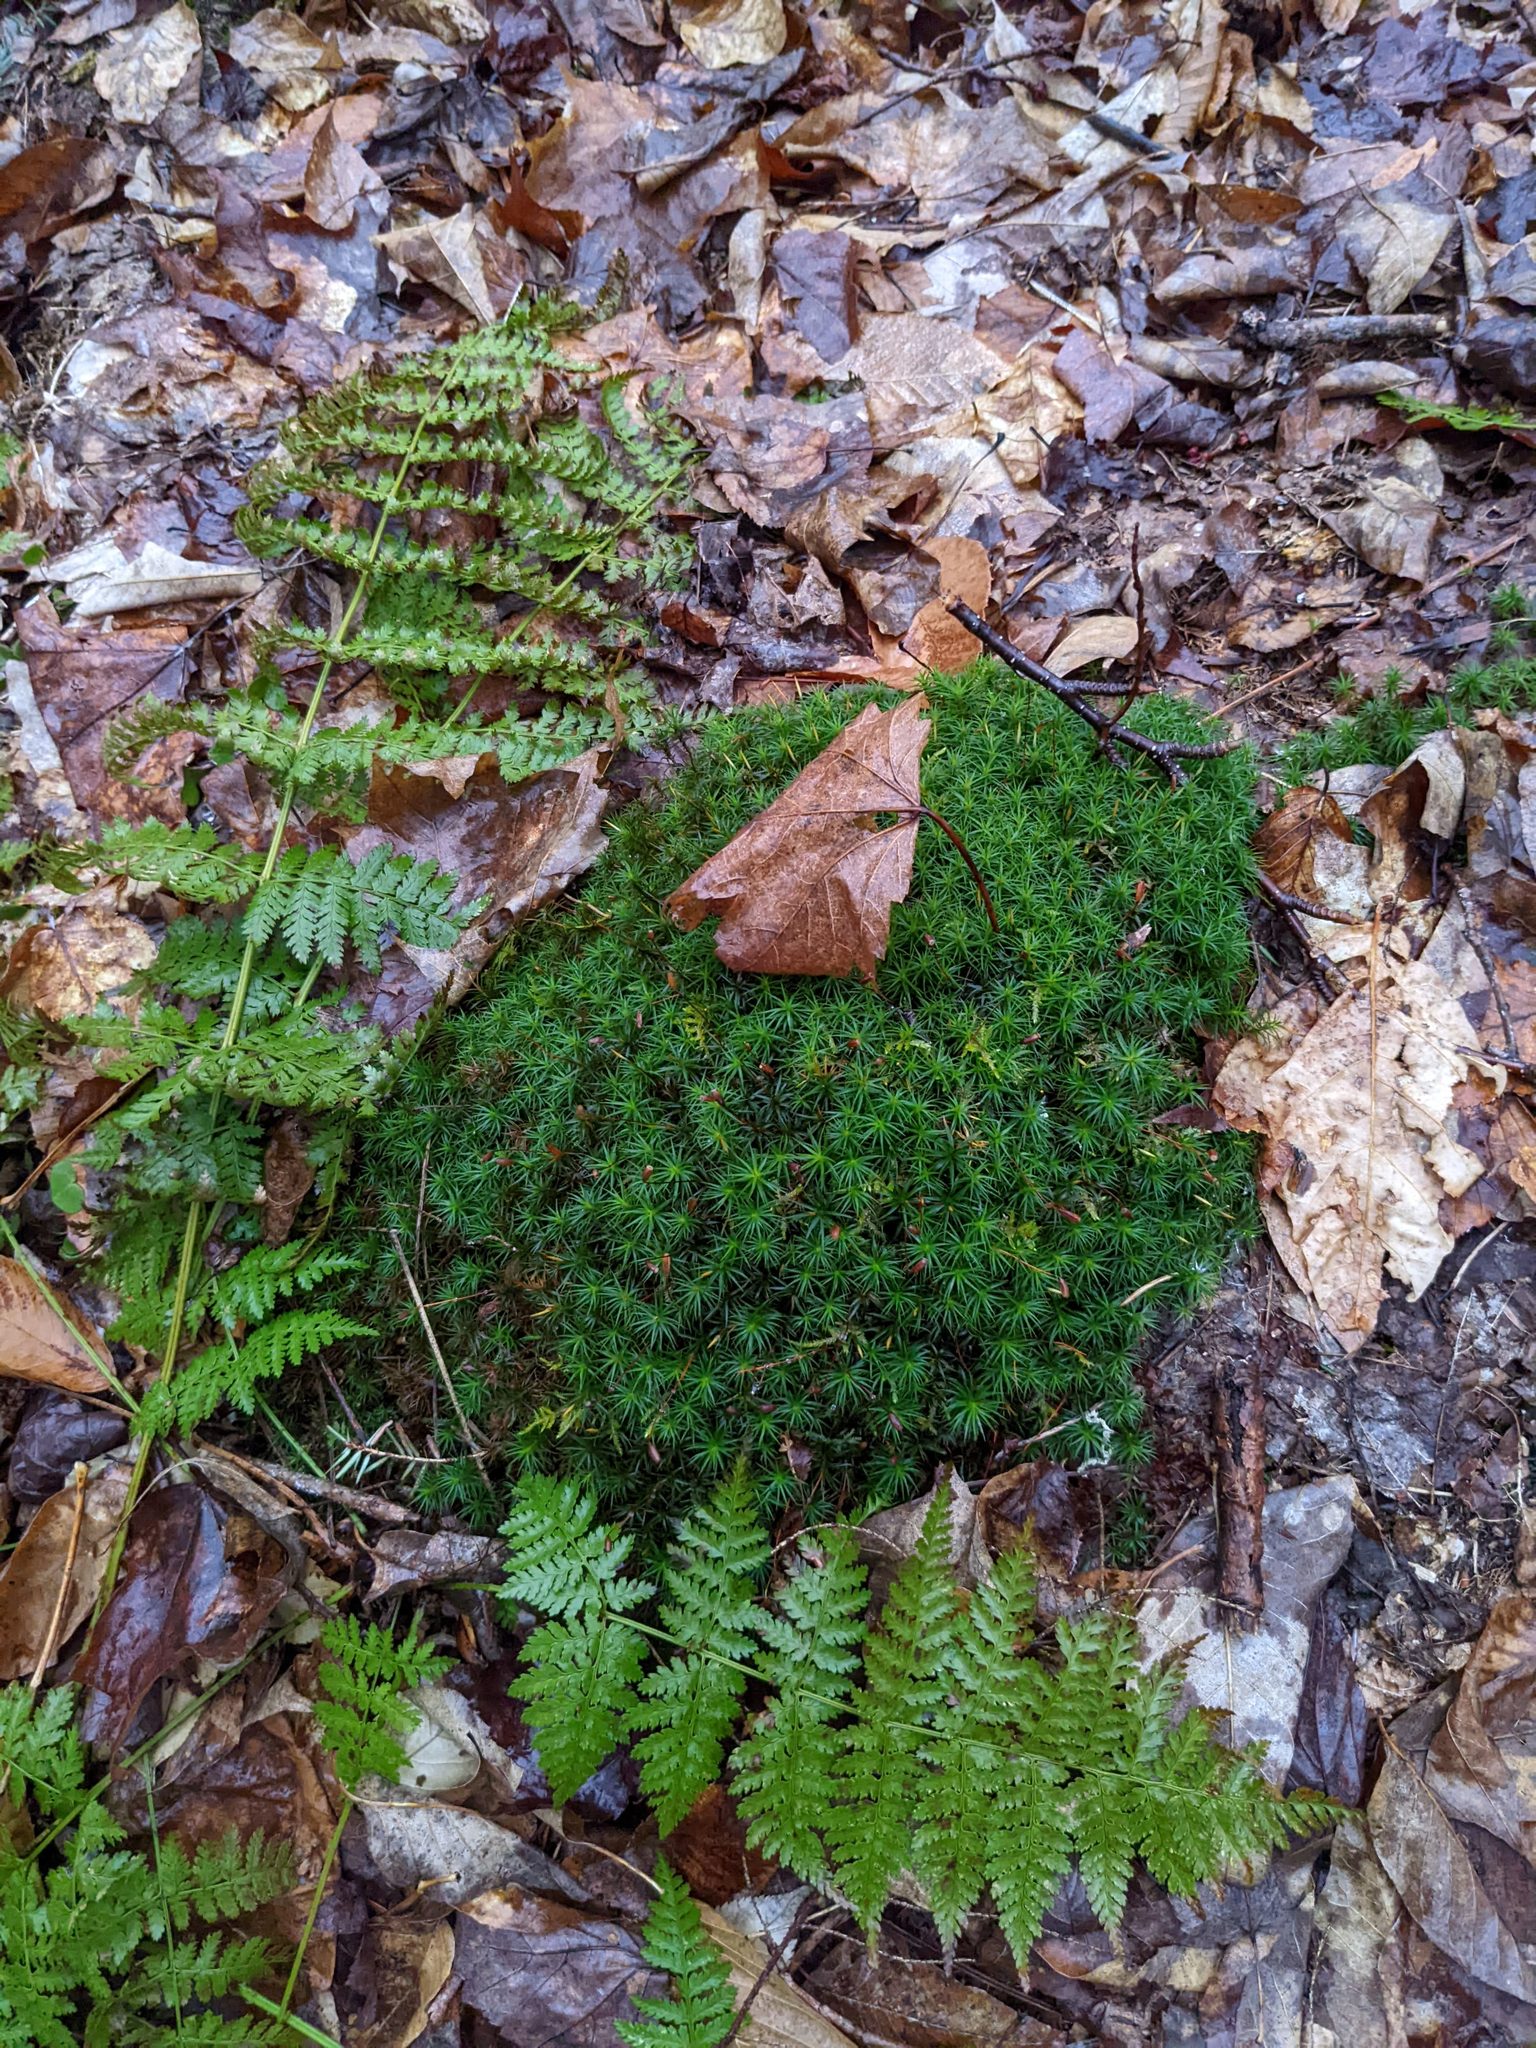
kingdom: Plantae
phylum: Tracheophyta
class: Polypodiopsida
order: Polypodiales
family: Dryopteridaceae
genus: Dryopteris
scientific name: Dryopteris intermedia
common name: Evergreen wood fern
